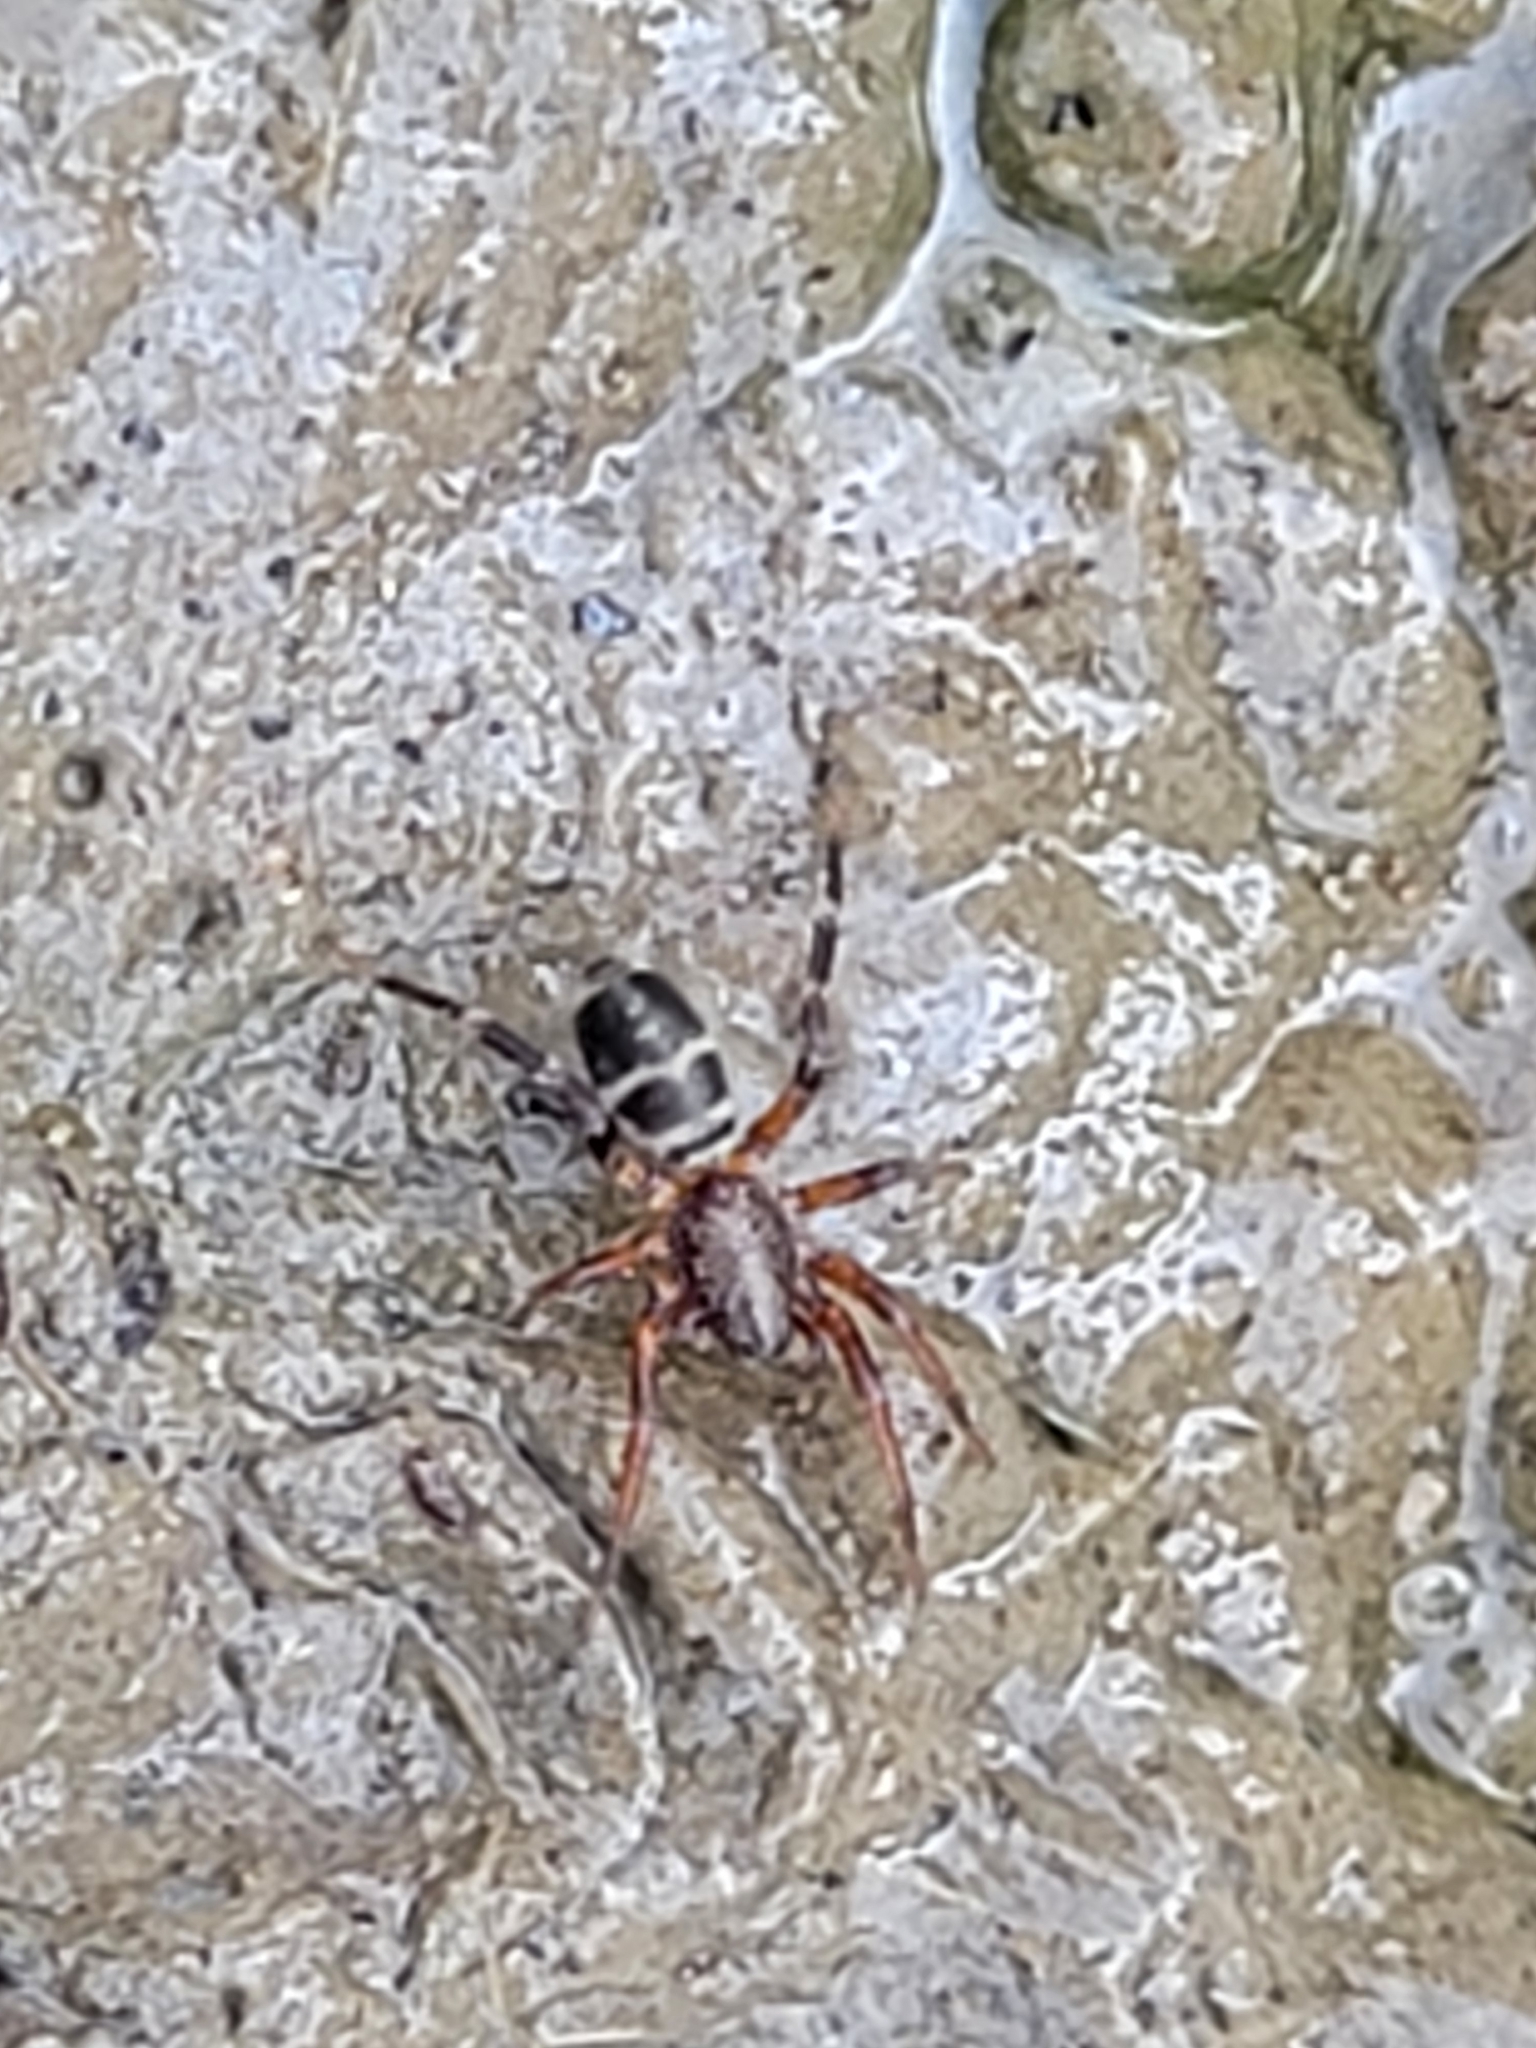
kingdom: Animalia
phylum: Arthropoda
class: Arachnida
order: Araneae
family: Corinnidae
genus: Castianeira
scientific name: Castianeira thalia
